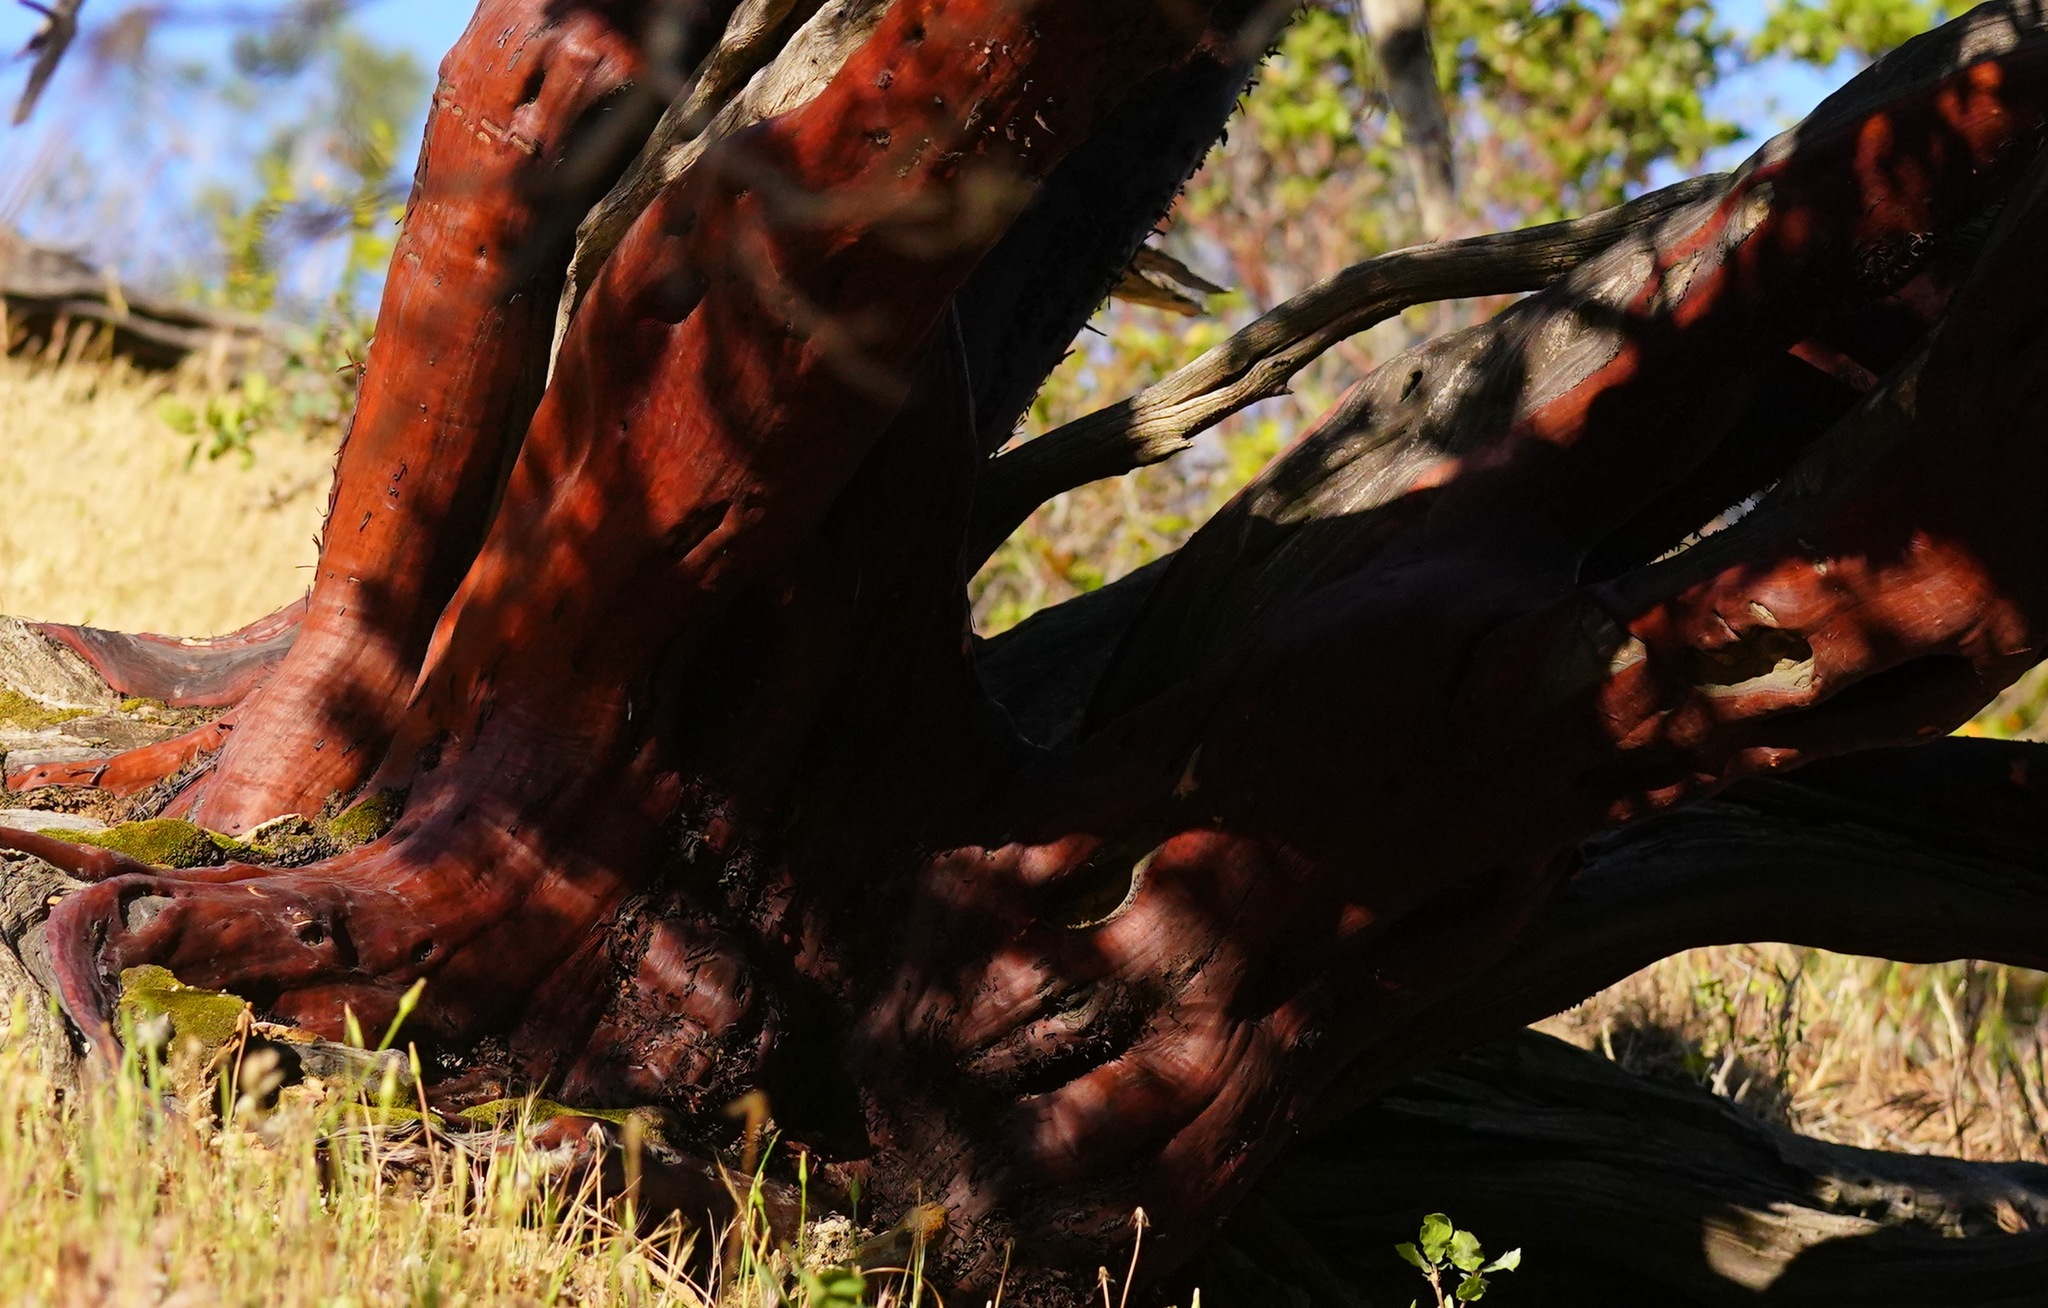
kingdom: Plantae
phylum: Tracheophyta
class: Magnoliopsida
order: Ericales
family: Ericaceae
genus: Arctostaphylos
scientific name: Arctostaphylos manzanita
